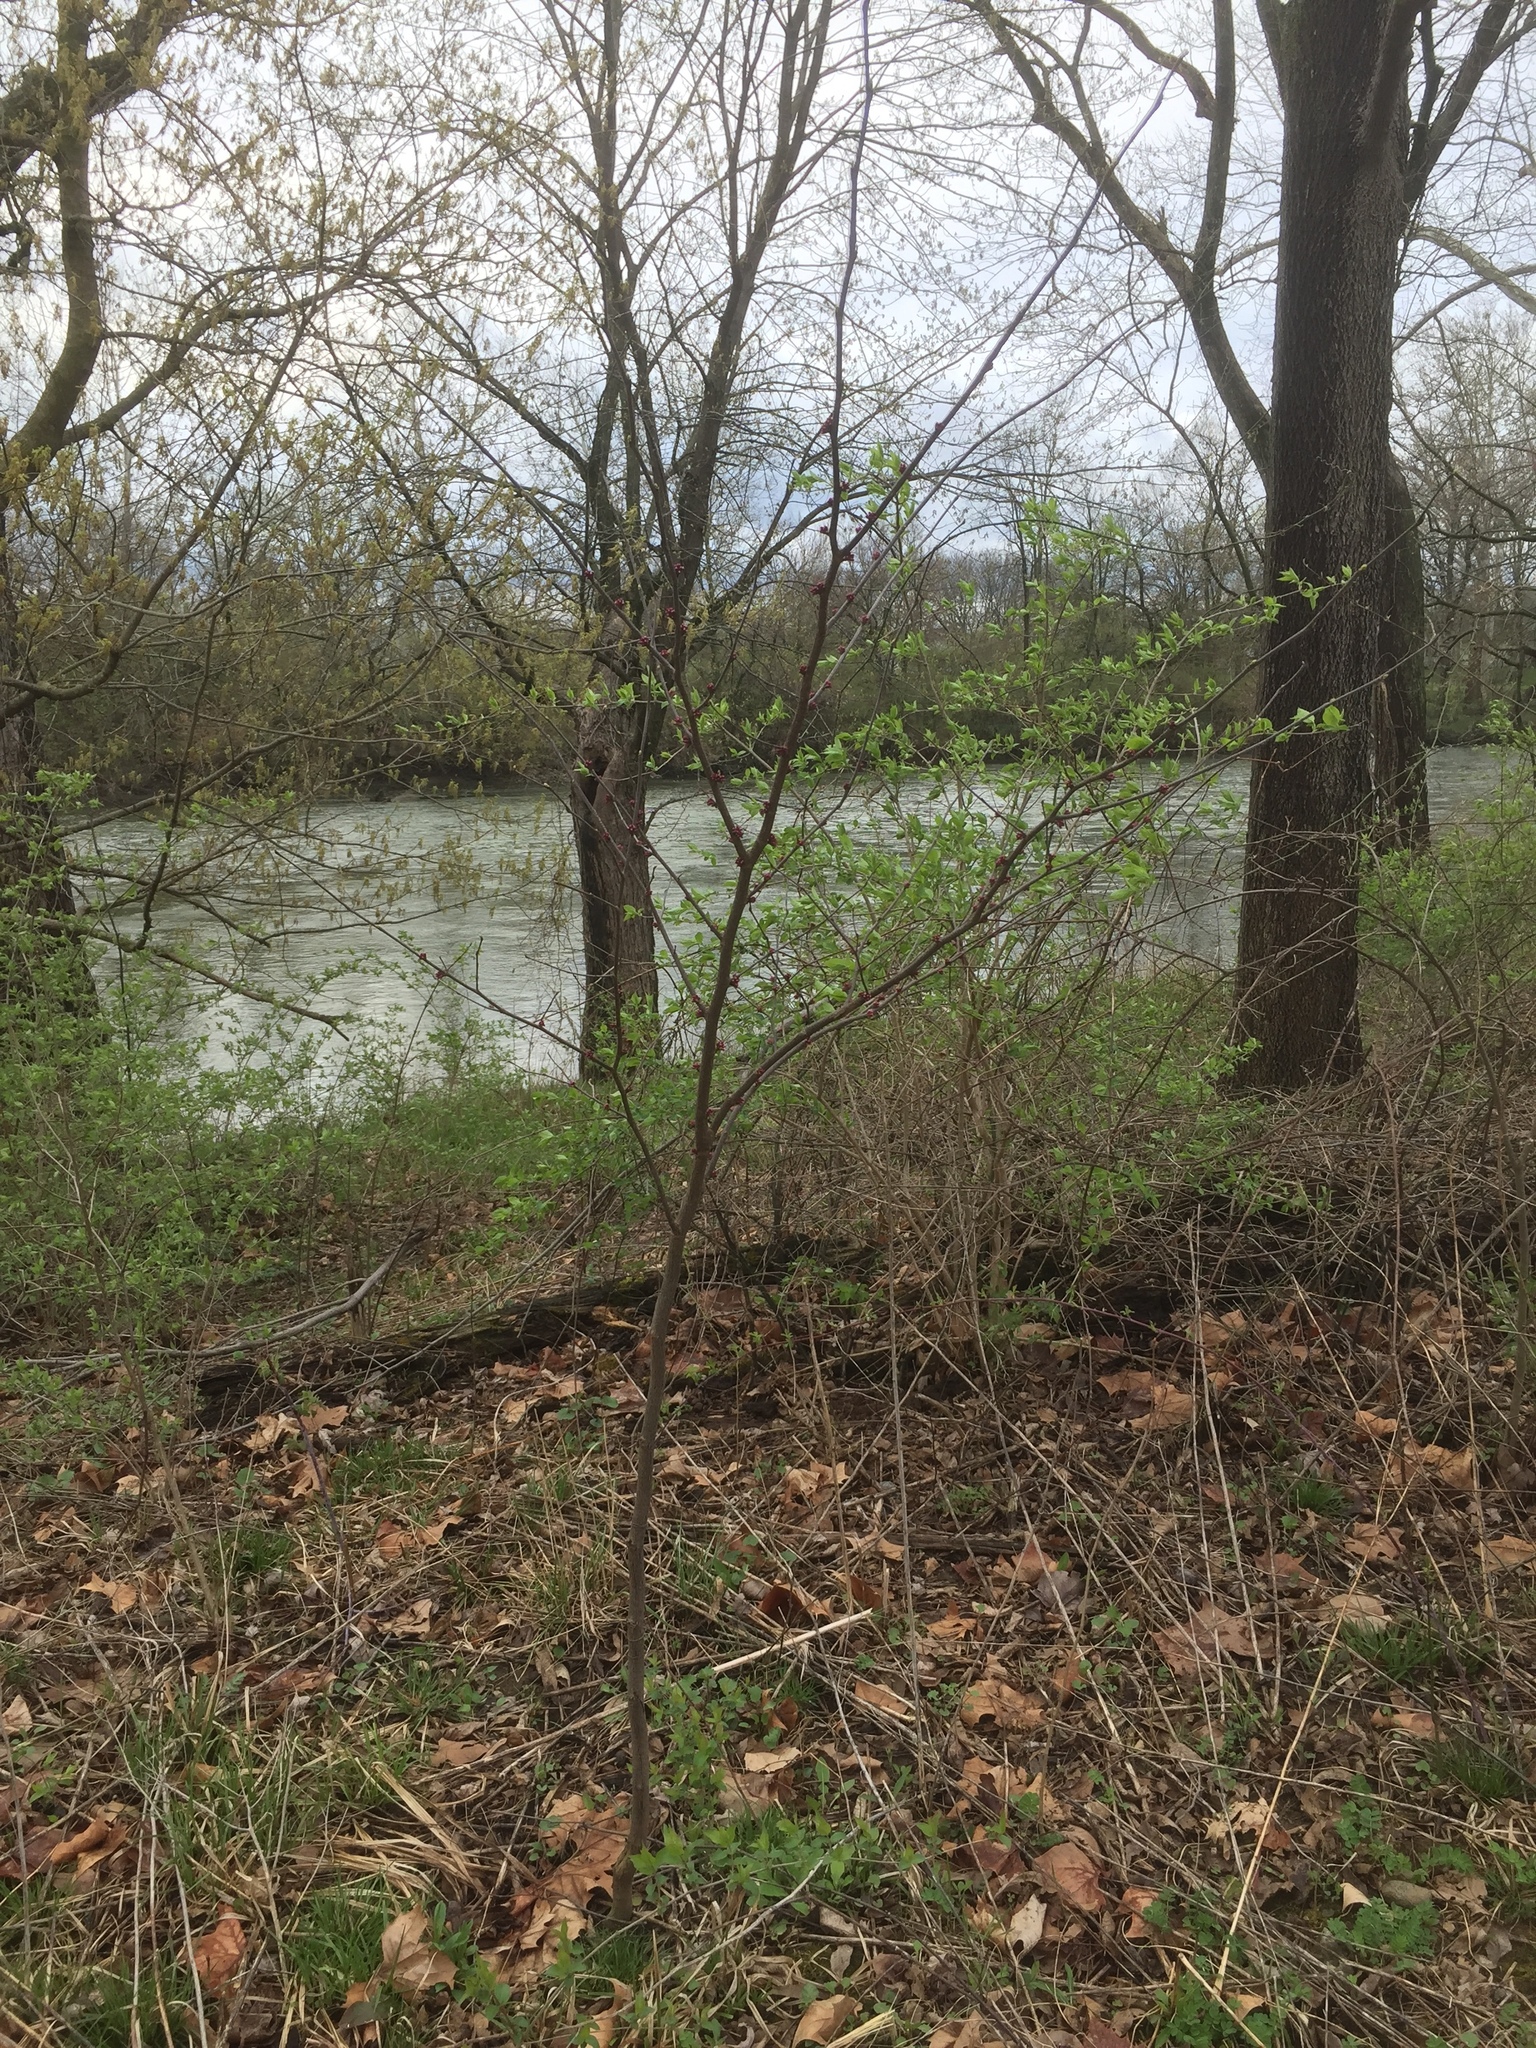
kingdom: Plantae
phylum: Tracheophyta
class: Magnoliopsida
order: Fabales
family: Fabaceae
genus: Cercis
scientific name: Cercis canadensis
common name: Eastern redbud
